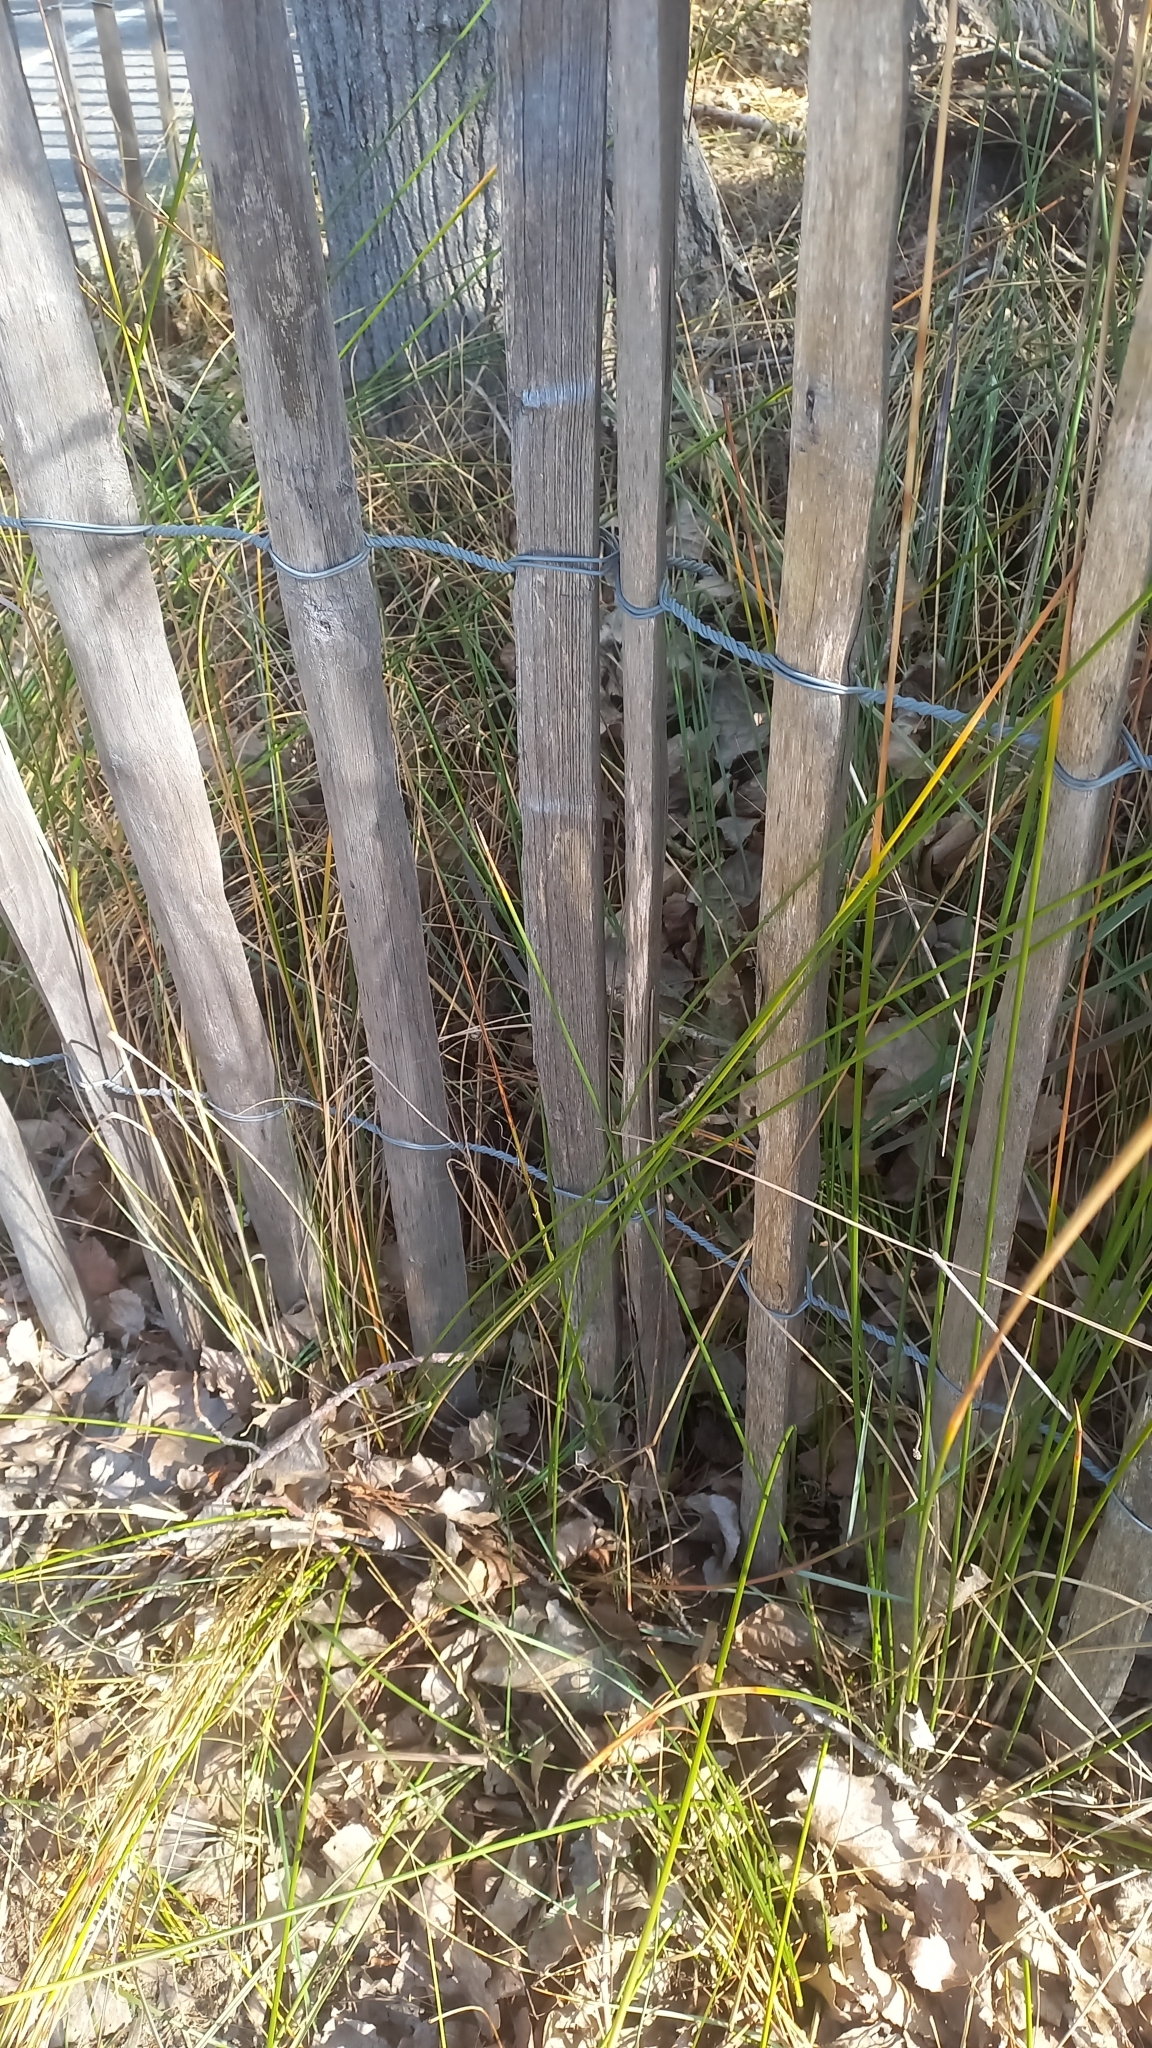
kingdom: Plantae
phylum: Tracheophyta
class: Liliopsida
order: Poales
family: Cyperaceae
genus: Scirpoides
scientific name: Scirpoides holoschoenus
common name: Round-headed club-rush
